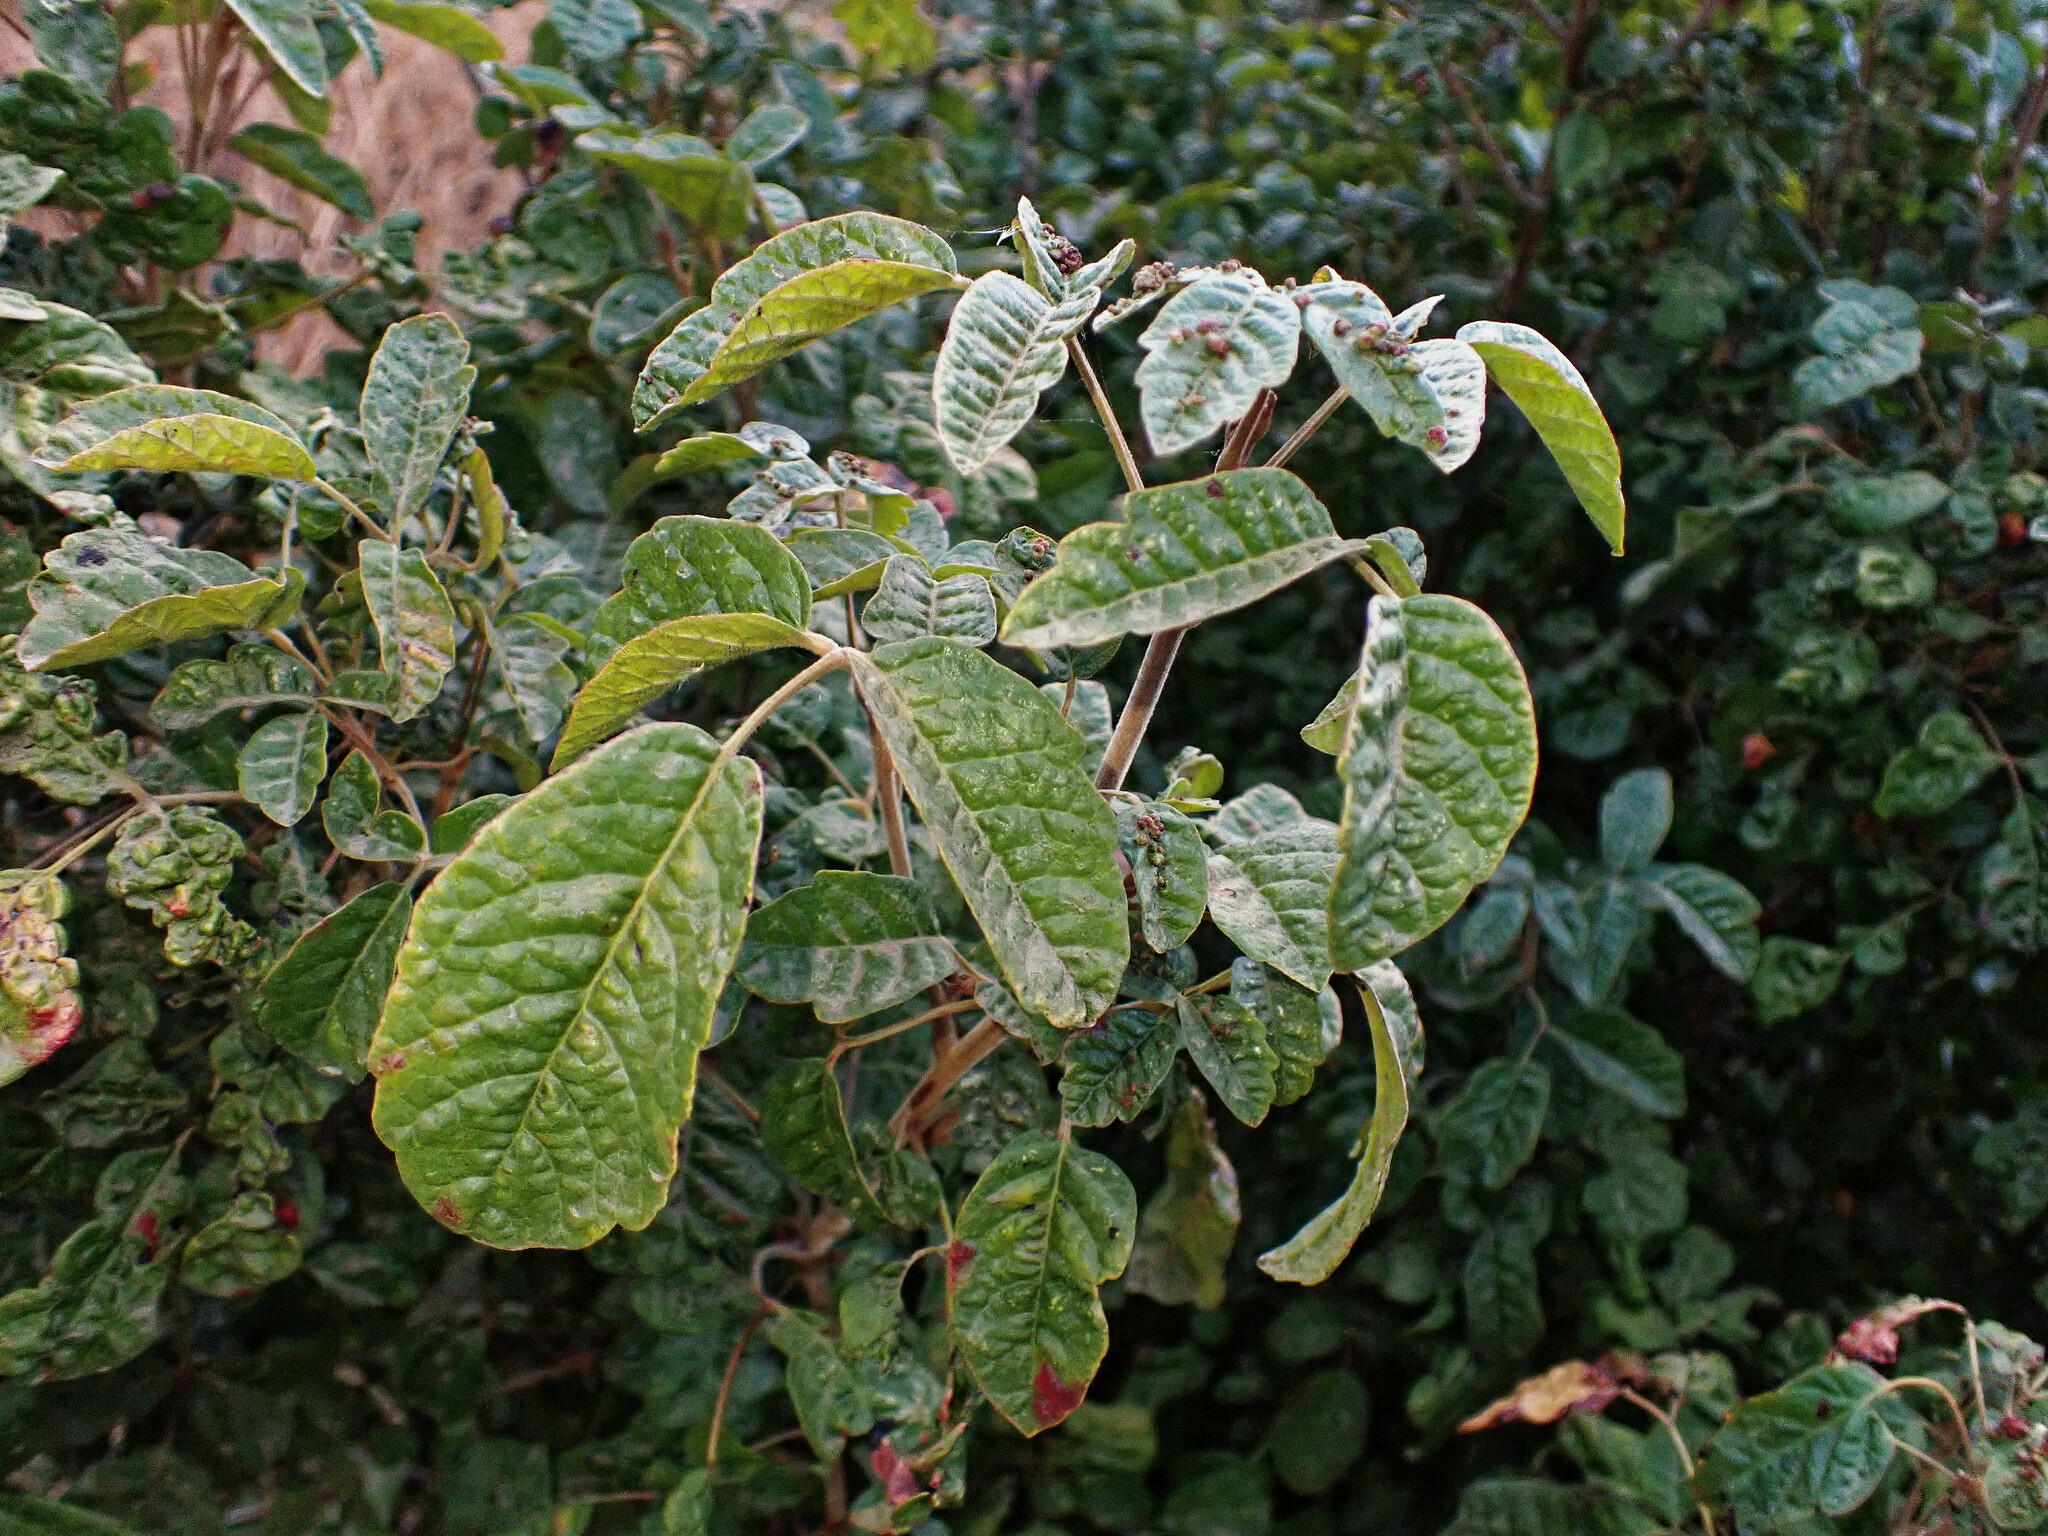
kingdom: Plantae
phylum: Tracheophyta
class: Magnoliopsida
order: Sapindales
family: Anacardiaceae
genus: Toxicodendron
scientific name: Toxicodendron diversilobum
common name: Pacific poison-oak
